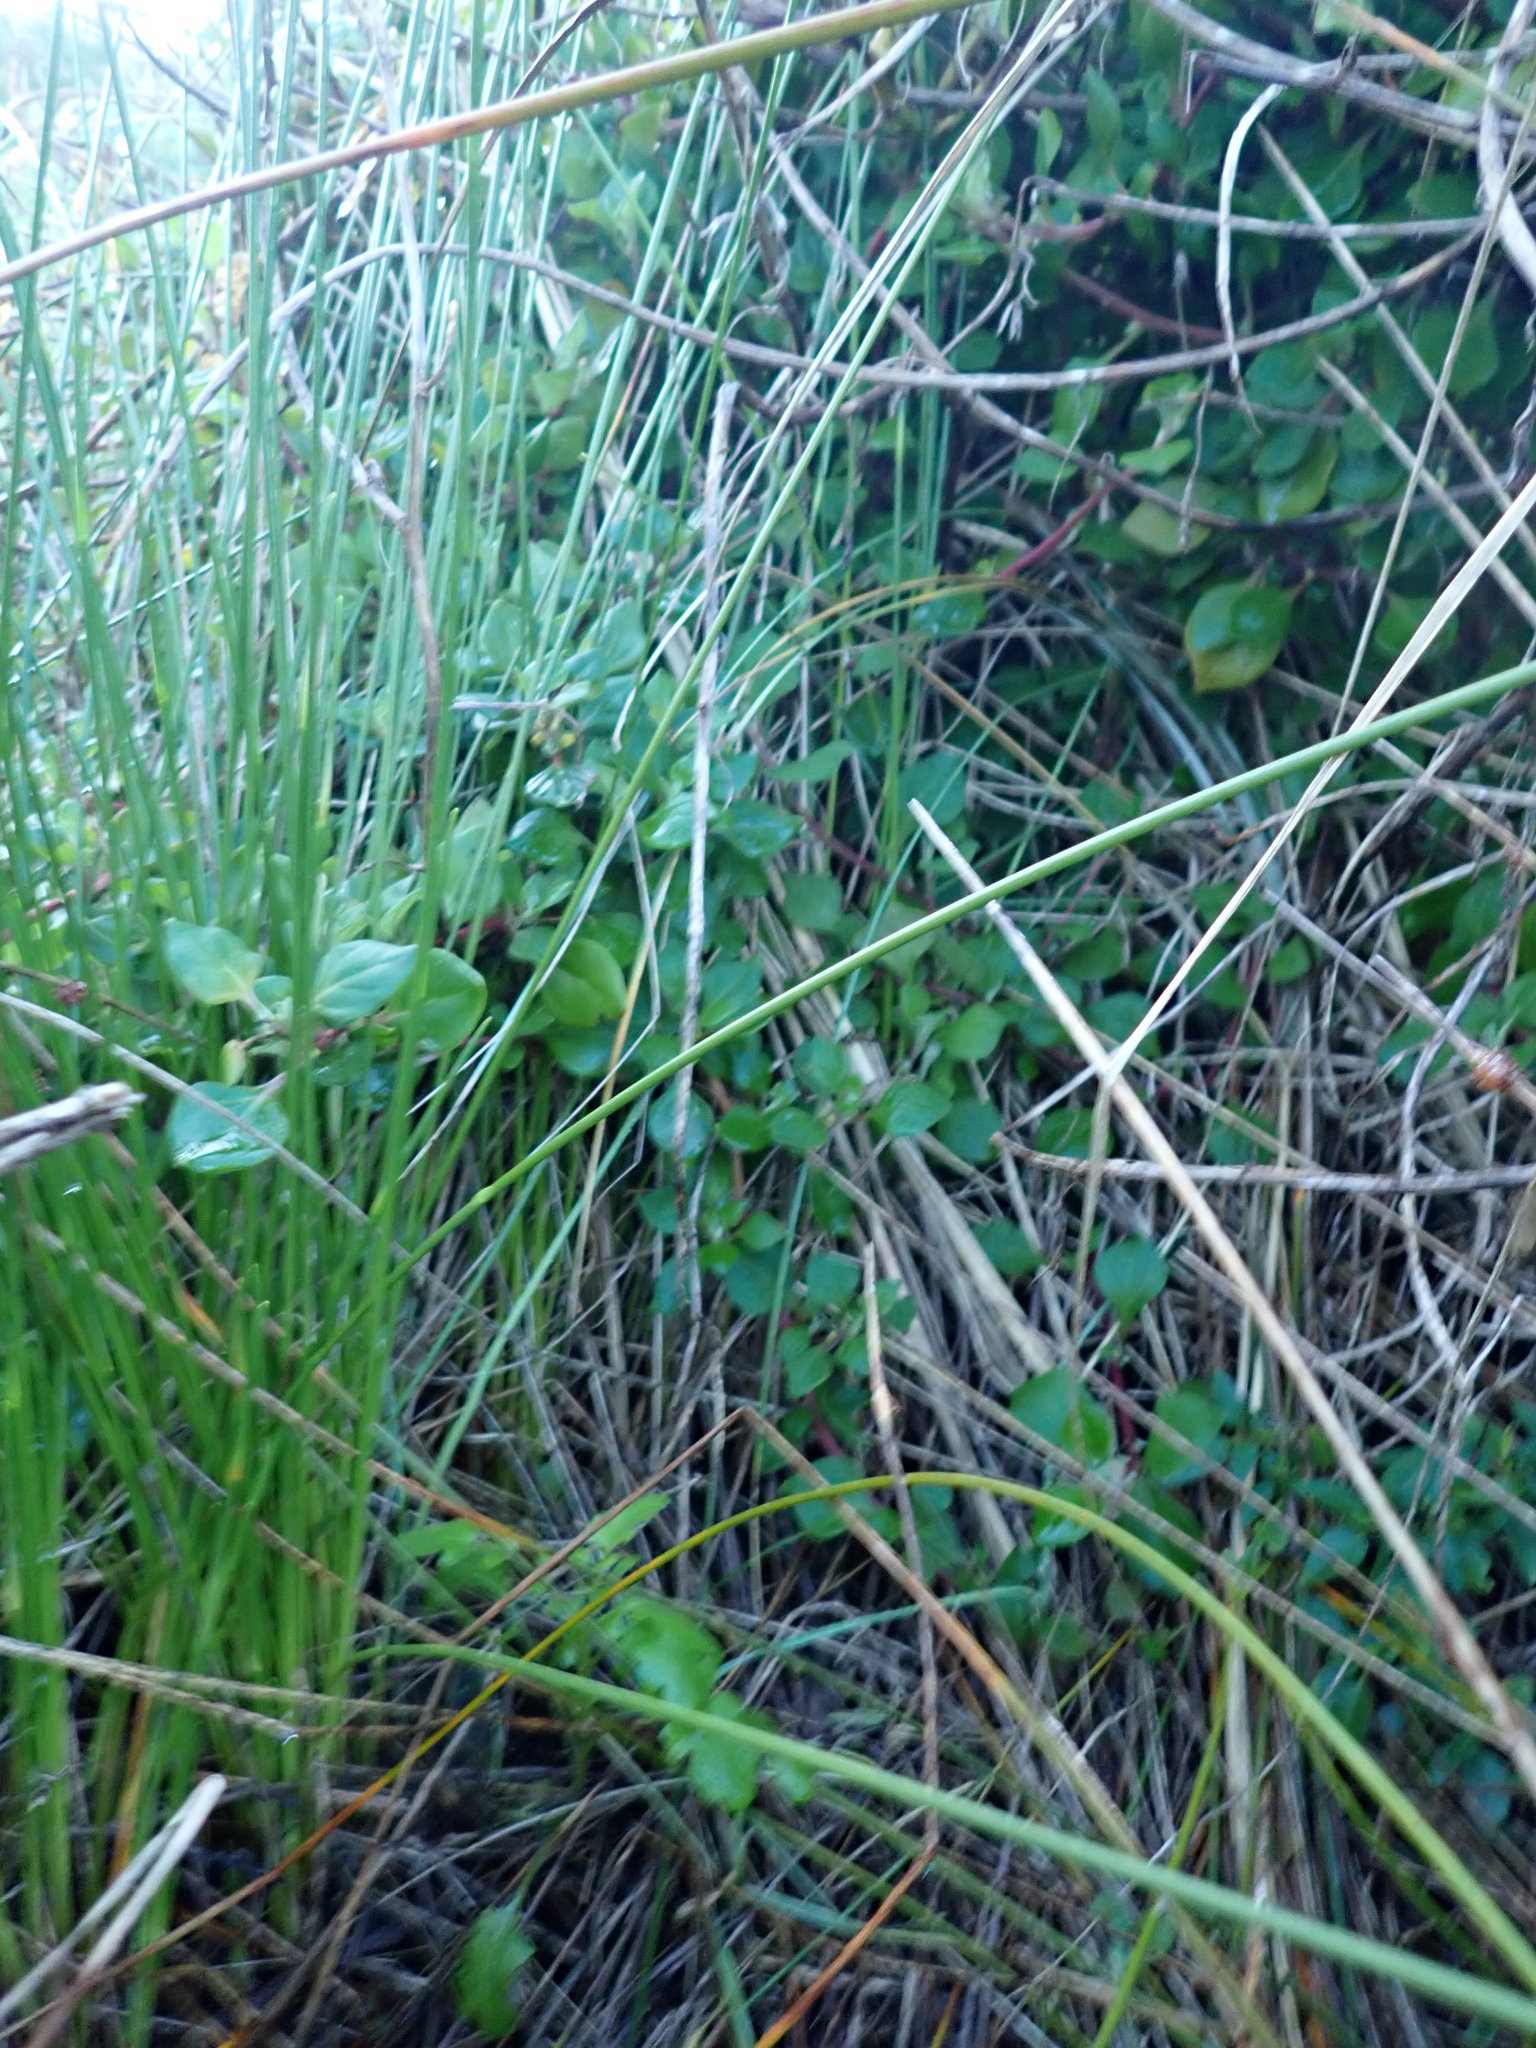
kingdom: Plantae
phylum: Tracheophyta
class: Magnoliopsida
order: Caryophyllales
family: Aizoaceae
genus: Tetragonia
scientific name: Tetragonia implexicoma
